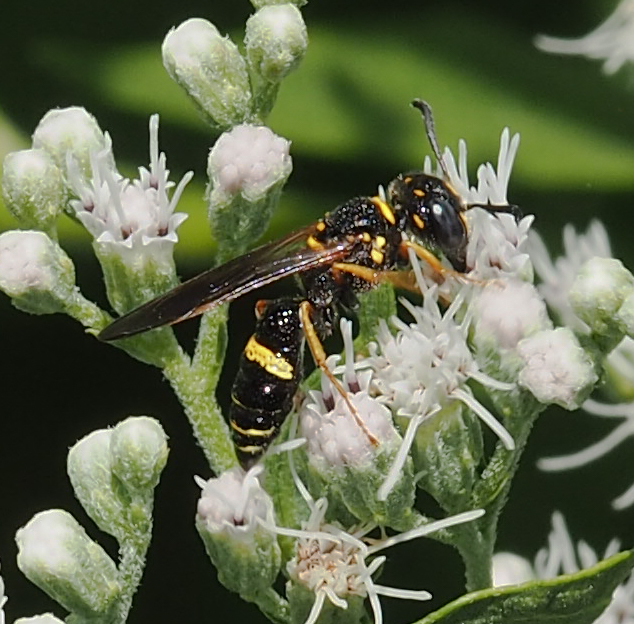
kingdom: Animalia
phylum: Arthropoda
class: Insecta
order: Hymenoptera
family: Crabronidae
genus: Philanthus
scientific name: Philanthus gibbosus
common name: Humped beewolf
